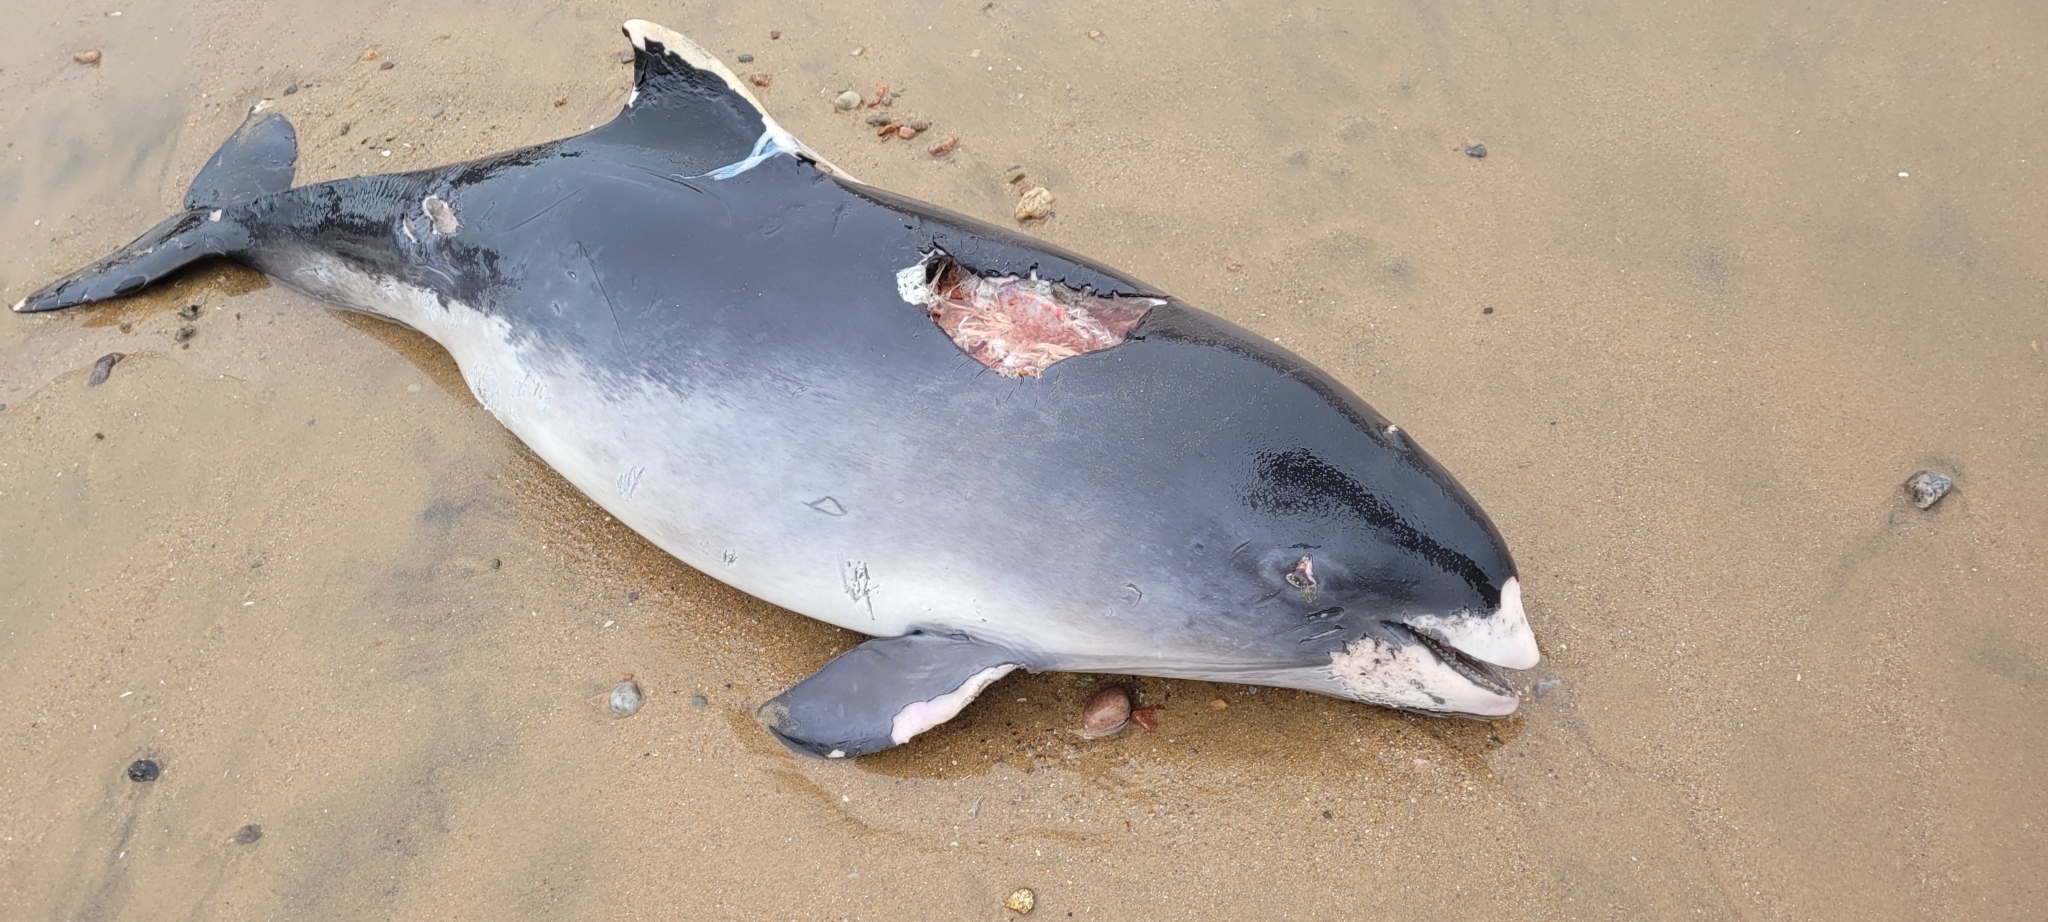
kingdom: Animalia
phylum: Chordata
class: Mammalia
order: Cetacea
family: Phocoenidae
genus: Phocoena
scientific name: Phocoena phocoena
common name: Harbor porpoise
